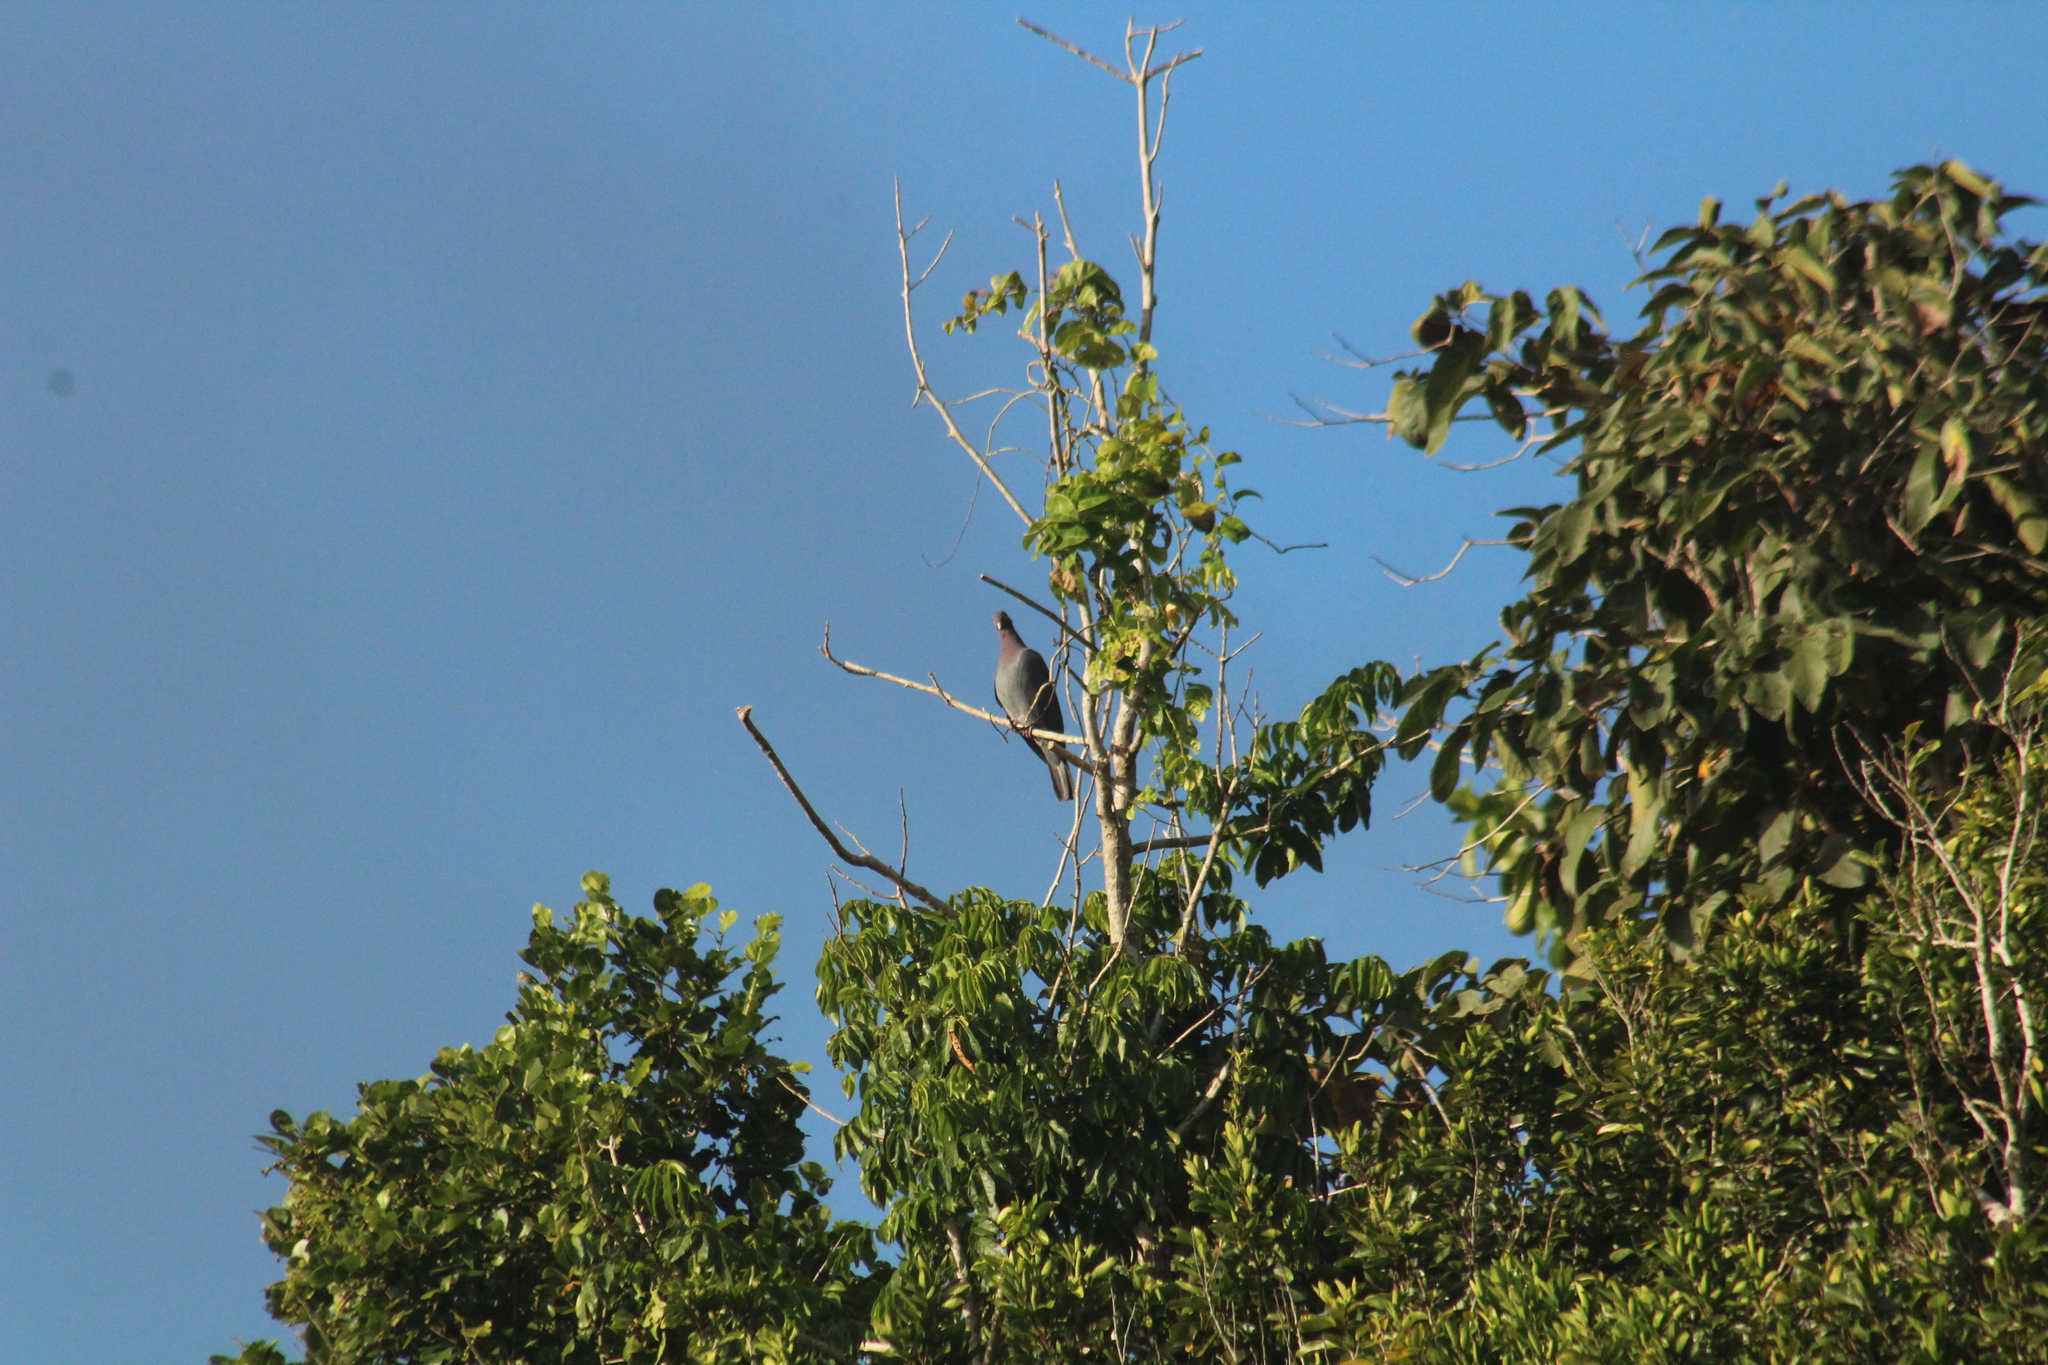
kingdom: Animalia
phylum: Chordata
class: Aves
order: Columbiformes
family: Columbidae
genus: Patagioenas
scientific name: Patagioenas squamosa
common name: Scaly-naped pigeon
